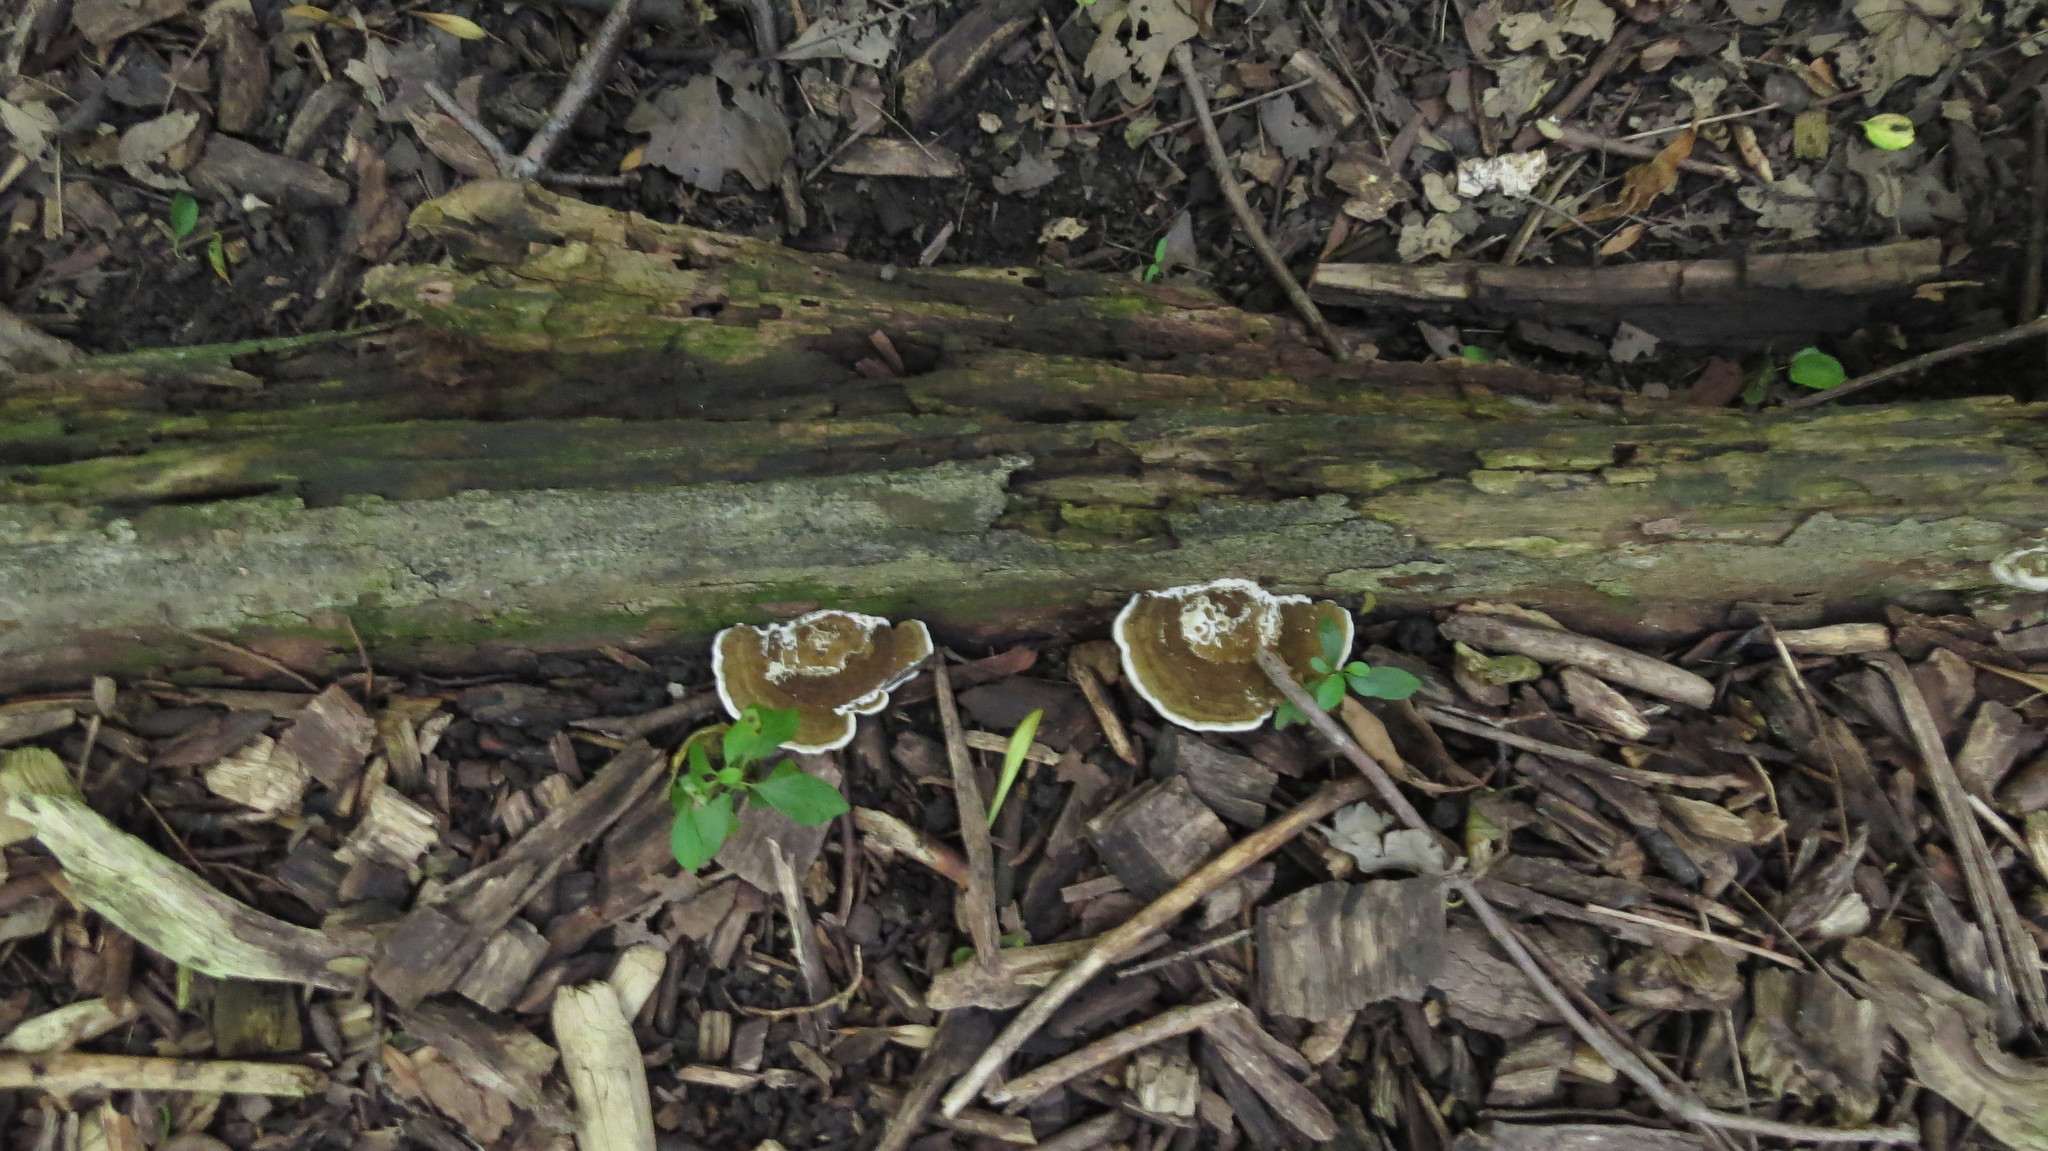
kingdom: Fungi
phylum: Basidiomycota
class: Agaricomycetes
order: Polyporales
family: Polyporaceae
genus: Daedaleopsis
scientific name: Daedaleopsis confragosa
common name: Blushing bracket
